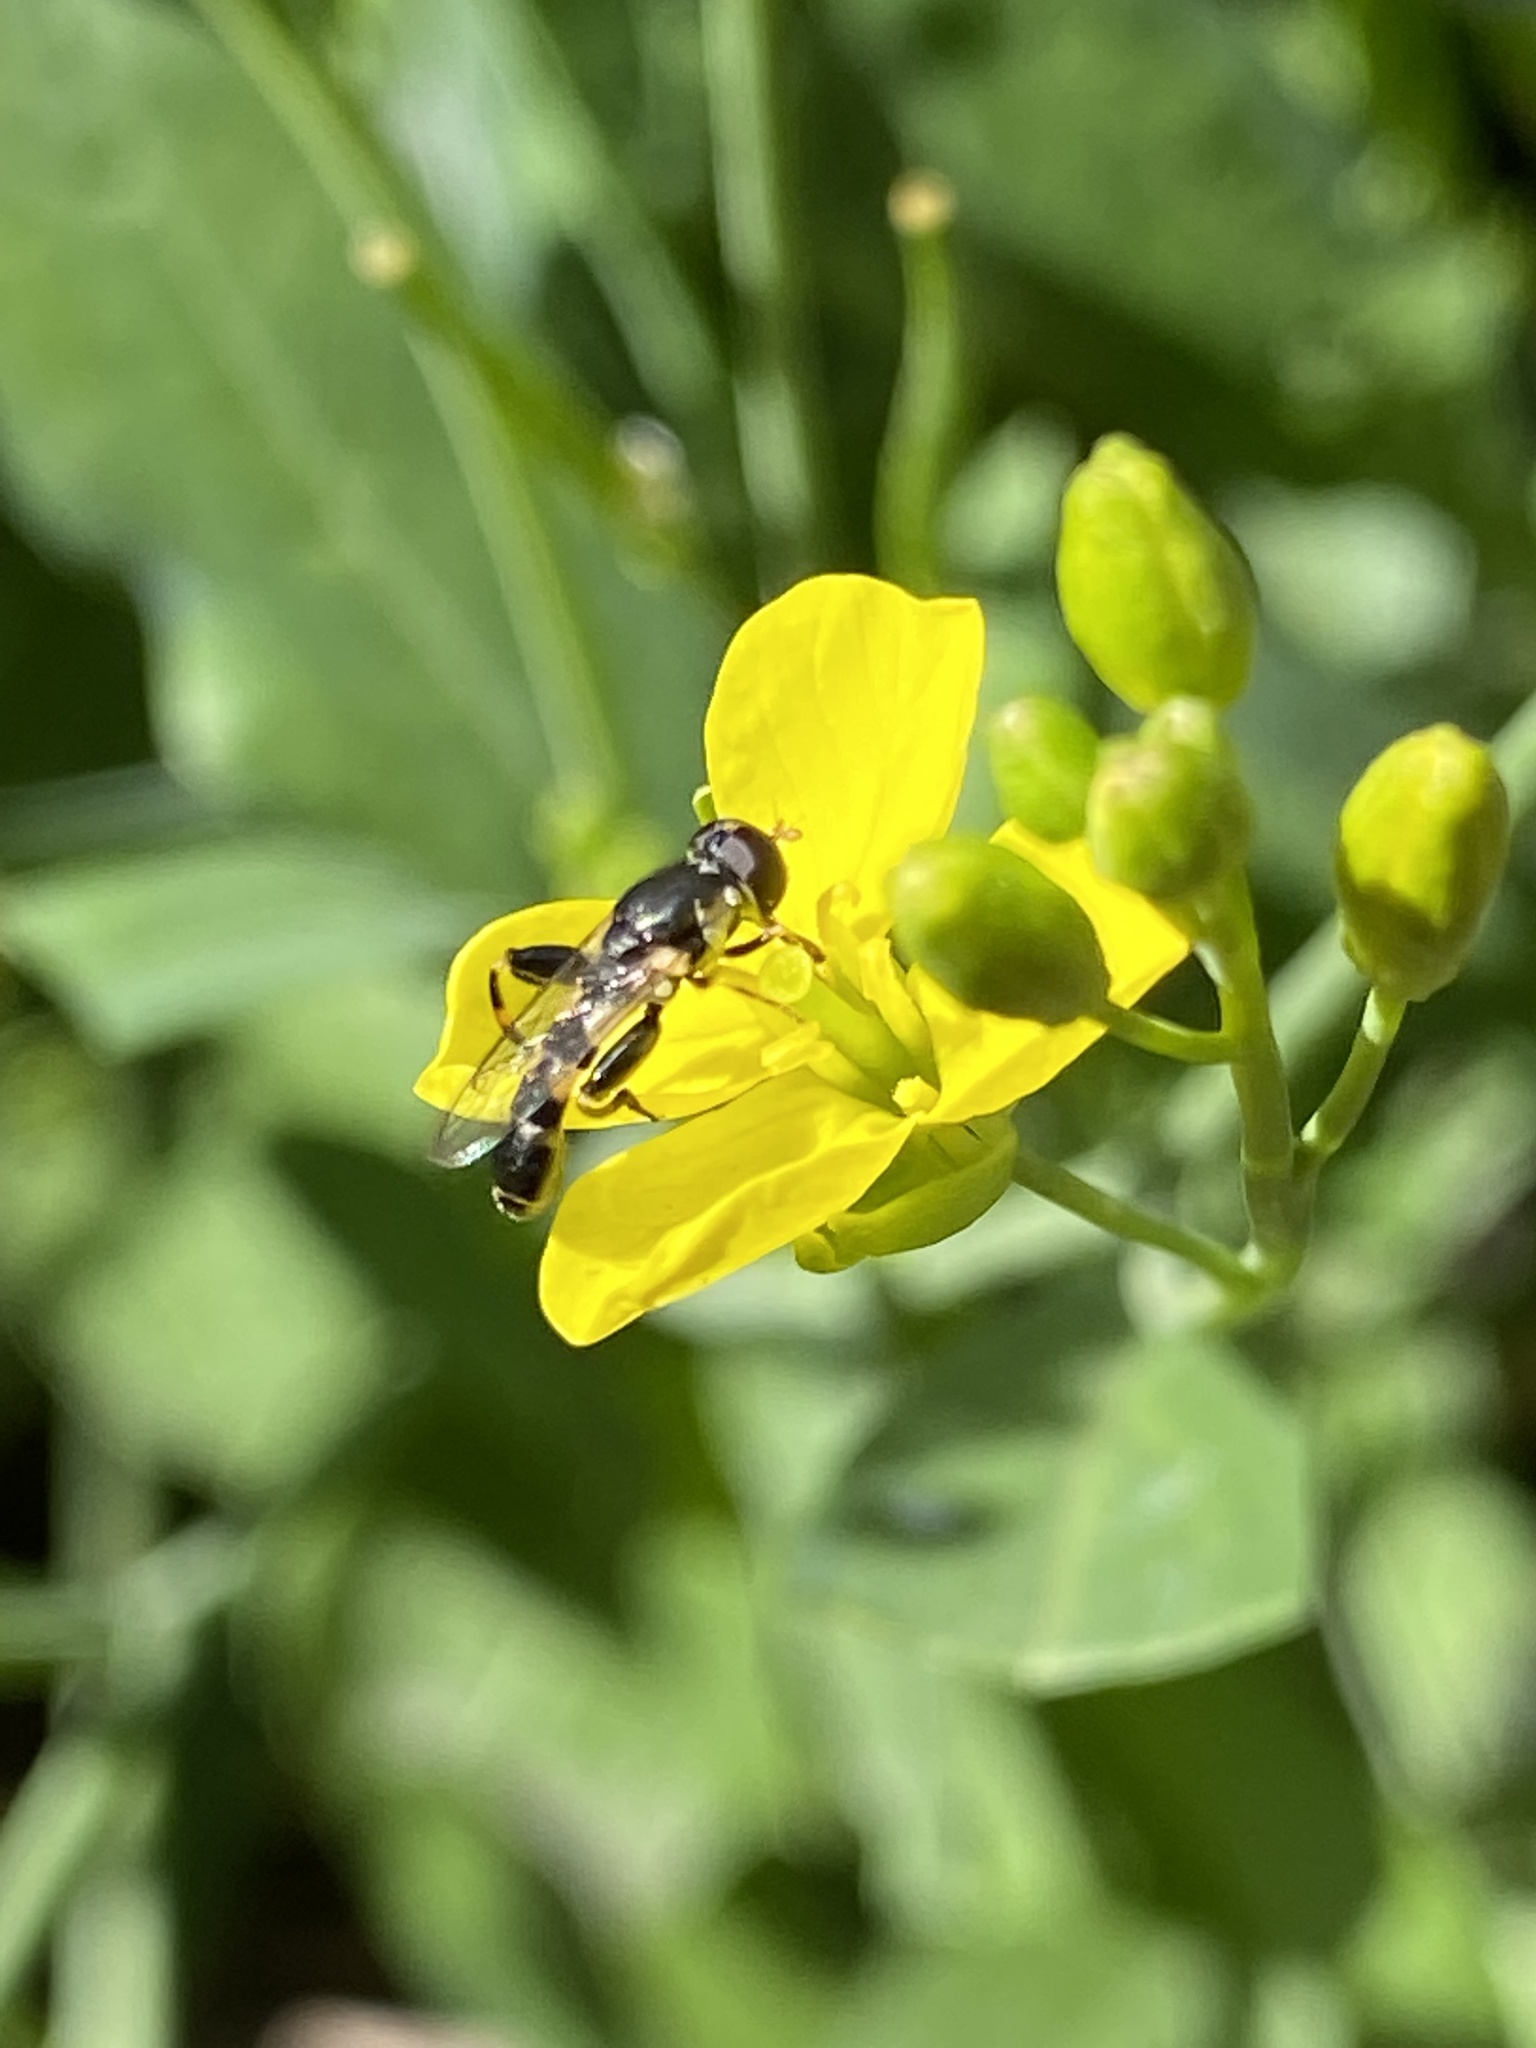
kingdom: Animalia
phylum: Arthropoda
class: Insecta
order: Diptera
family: Syrphidae
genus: Syritta
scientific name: Syritta pipiens
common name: Hover fly
